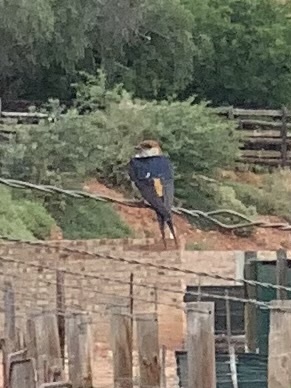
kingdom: Animalia
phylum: Chordata
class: Aves
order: Passeriformes
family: Hirundinidae
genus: Cecropis
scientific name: Cecropis cucullata
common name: Greater striped-swallow
